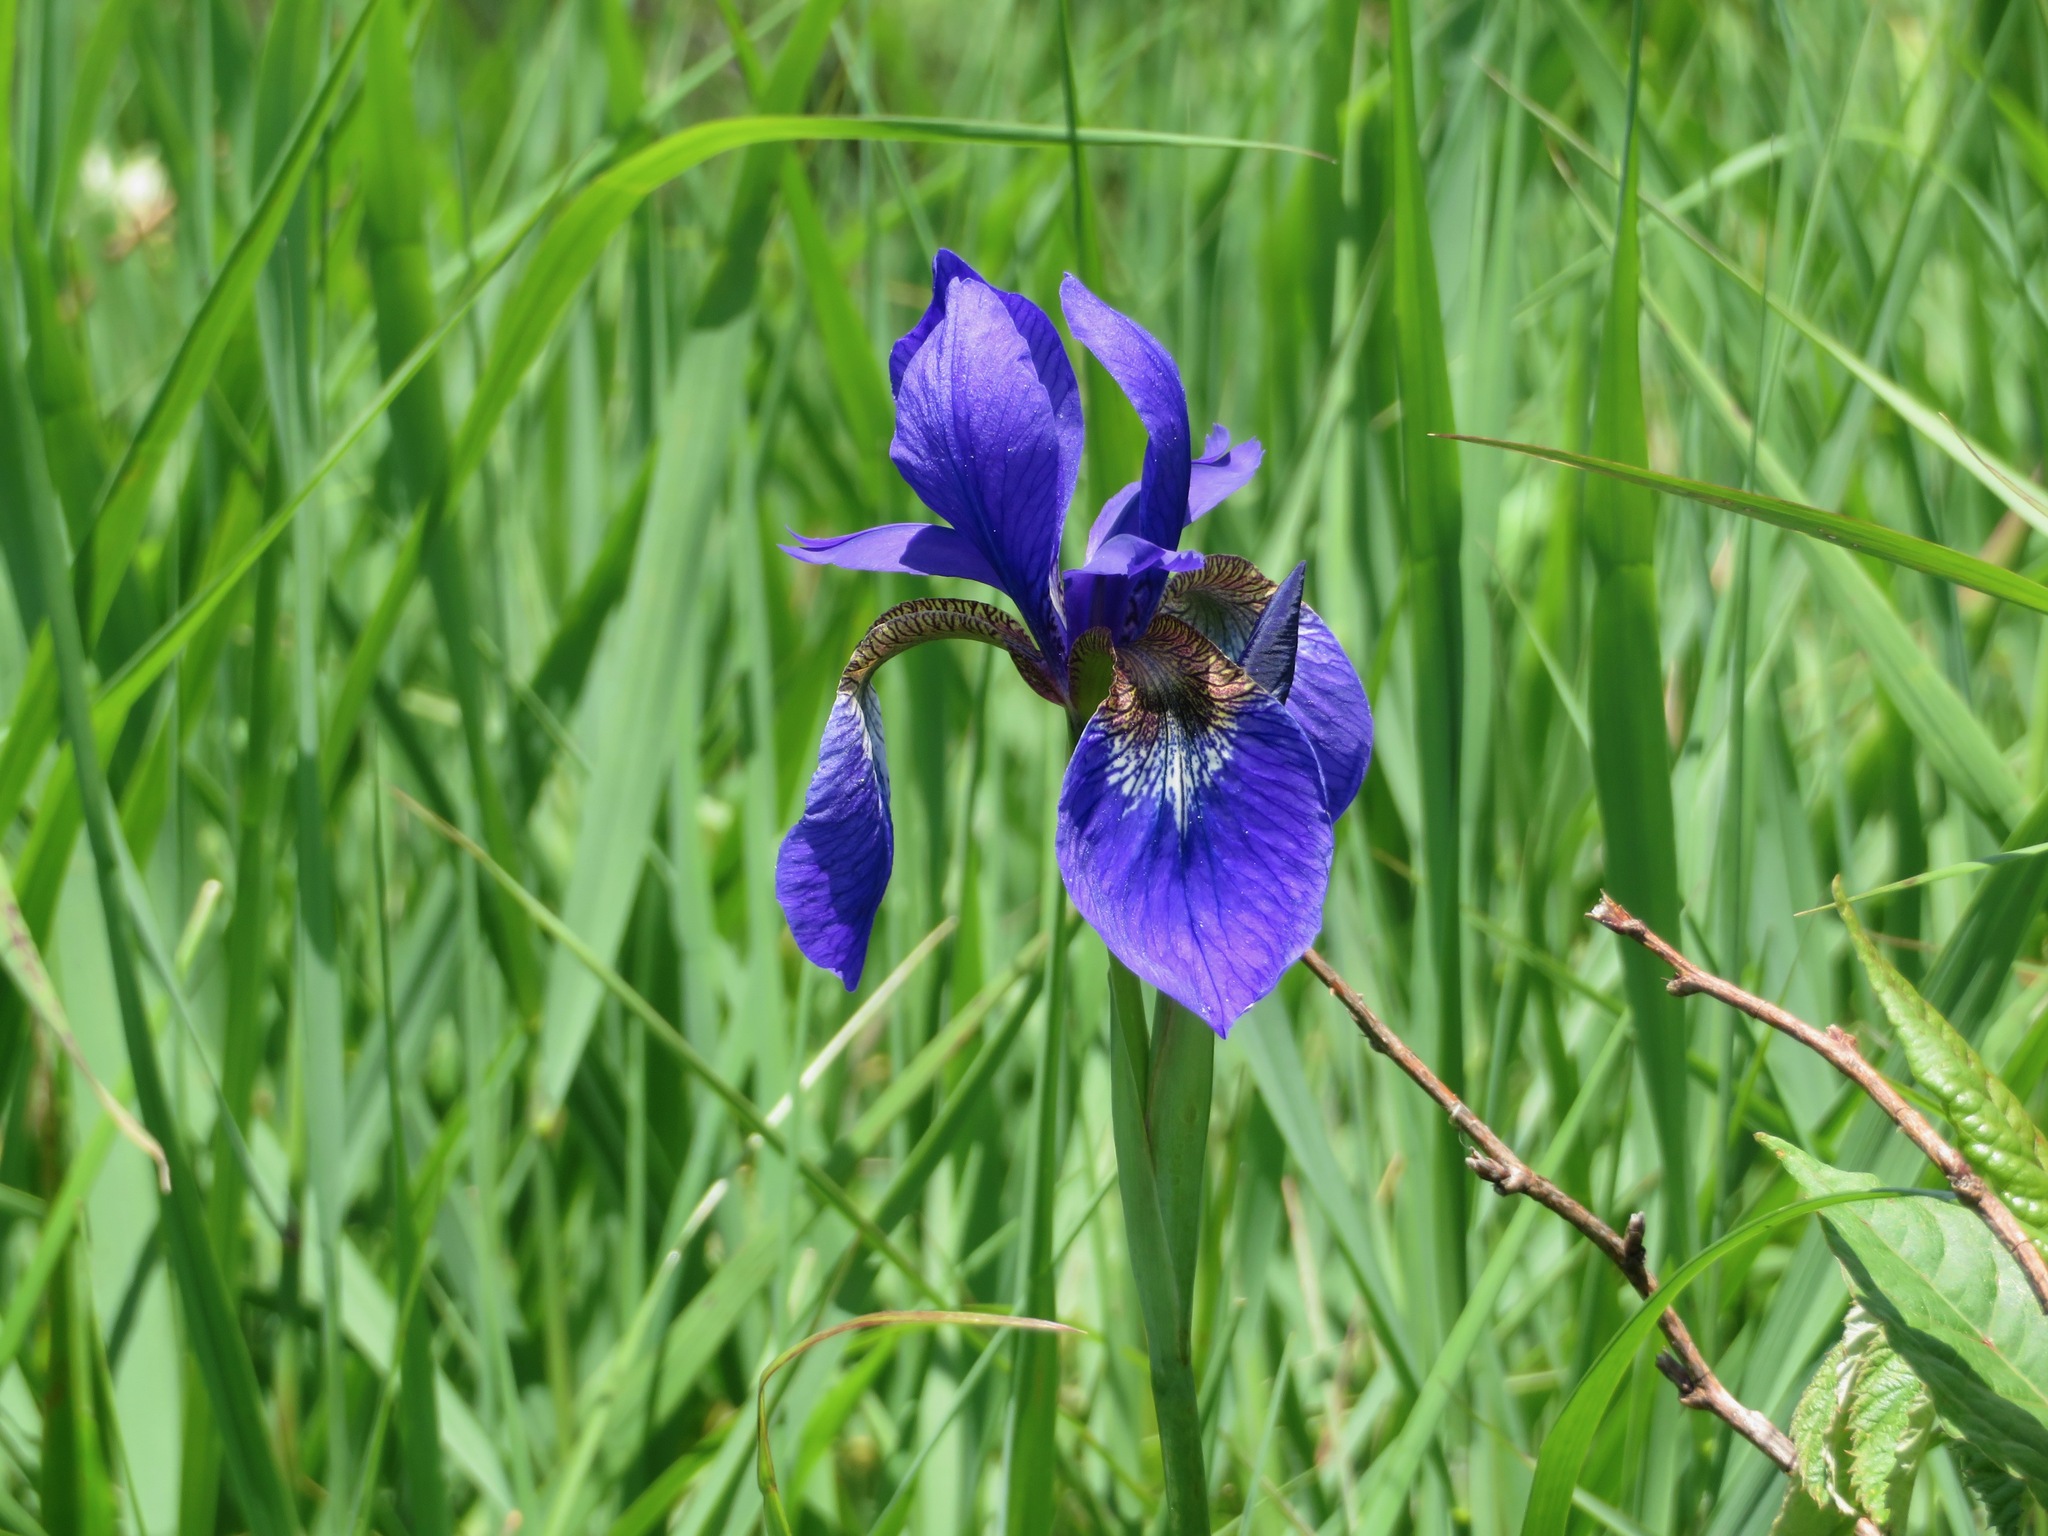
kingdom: Plantae
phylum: Tracheophyta
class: Liliopsida
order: Asparagales
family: Iridaceae
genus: Iris
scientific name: Iris sanguinea
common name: Blood iris
